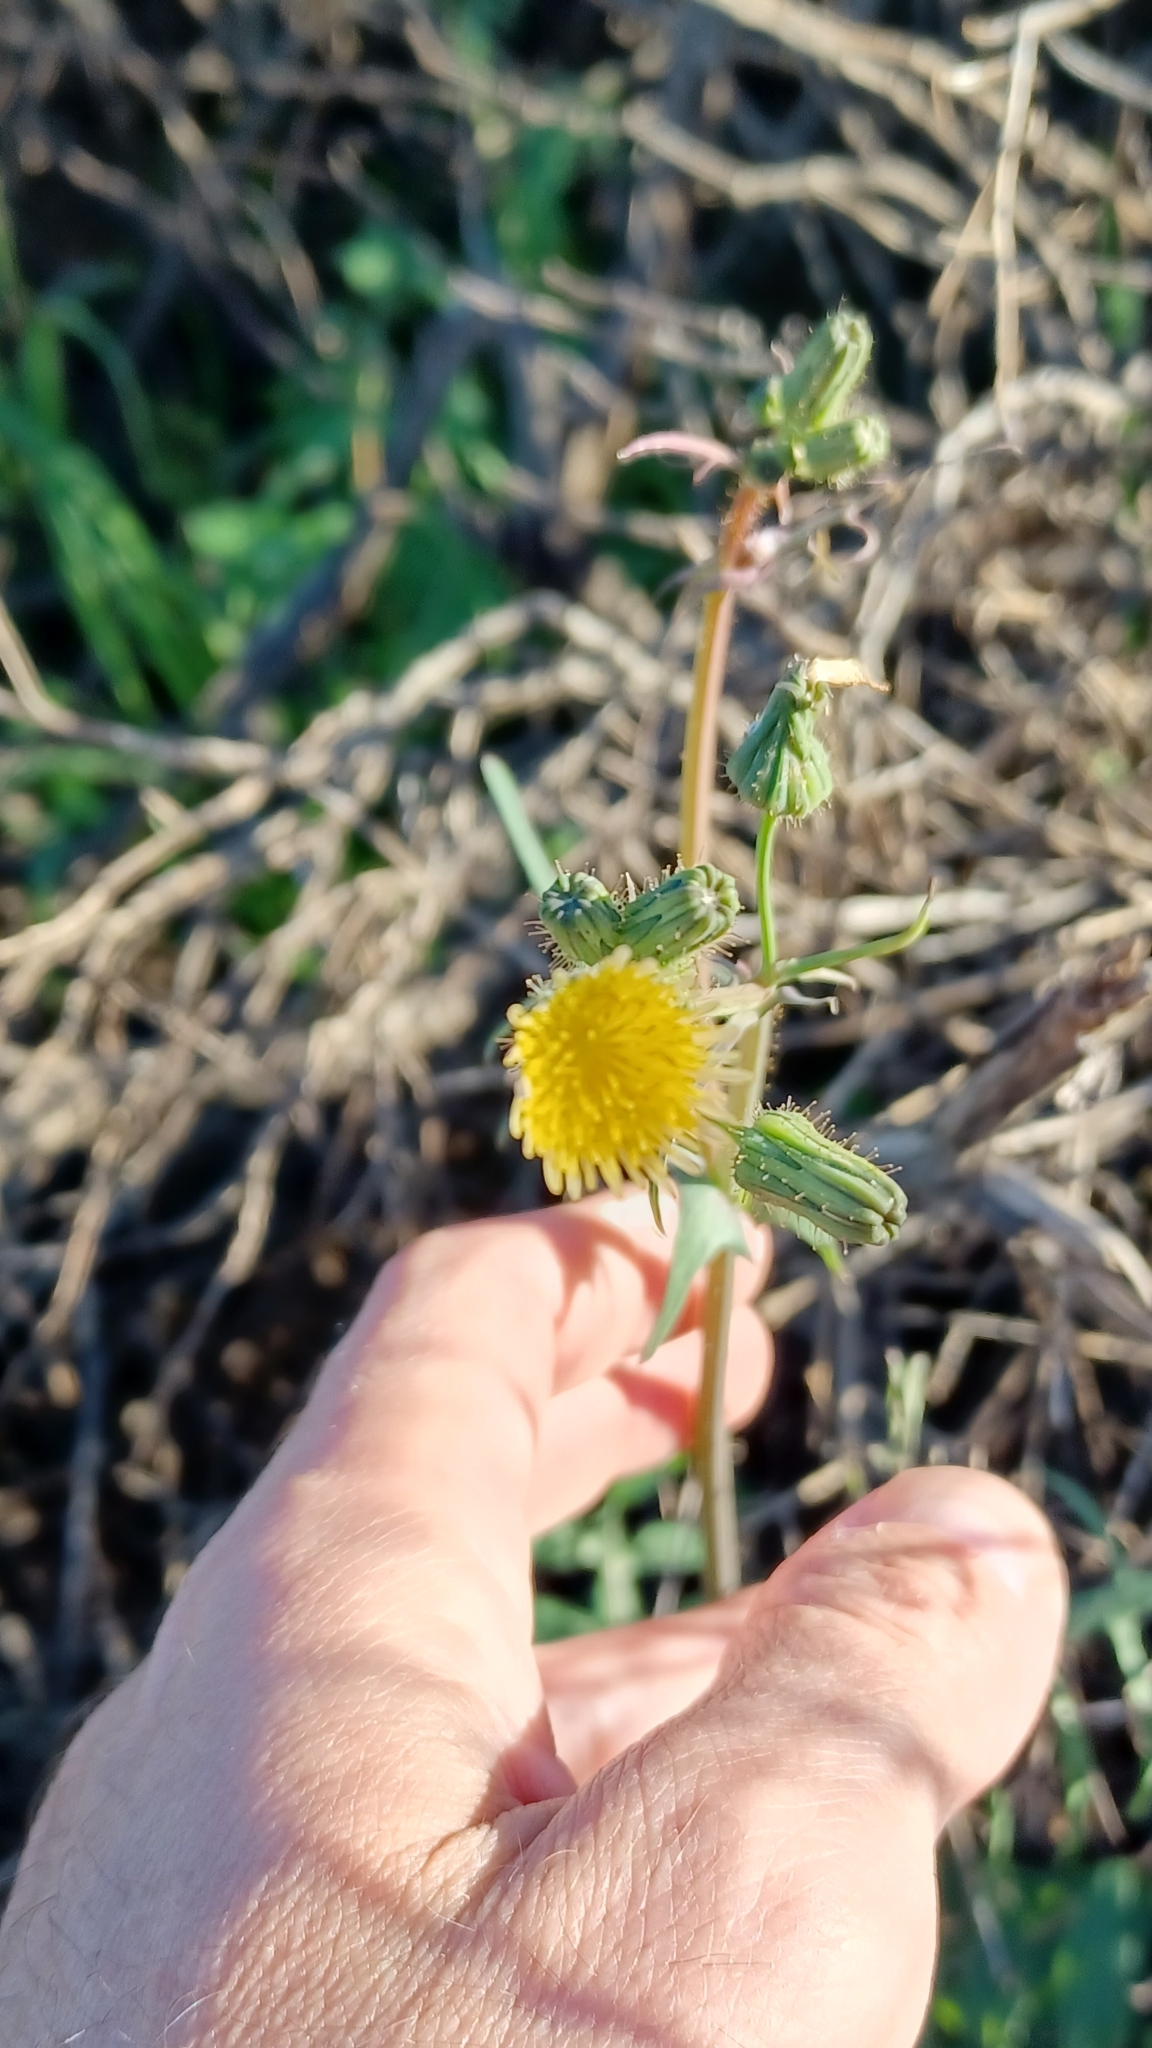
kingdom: Plantae
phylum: Tracheophyta
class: Magnoliopsida
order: Asterales
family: Asteraceae
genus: Sonchus
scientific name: Sonchus oleraceus
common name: Common sowthistle
